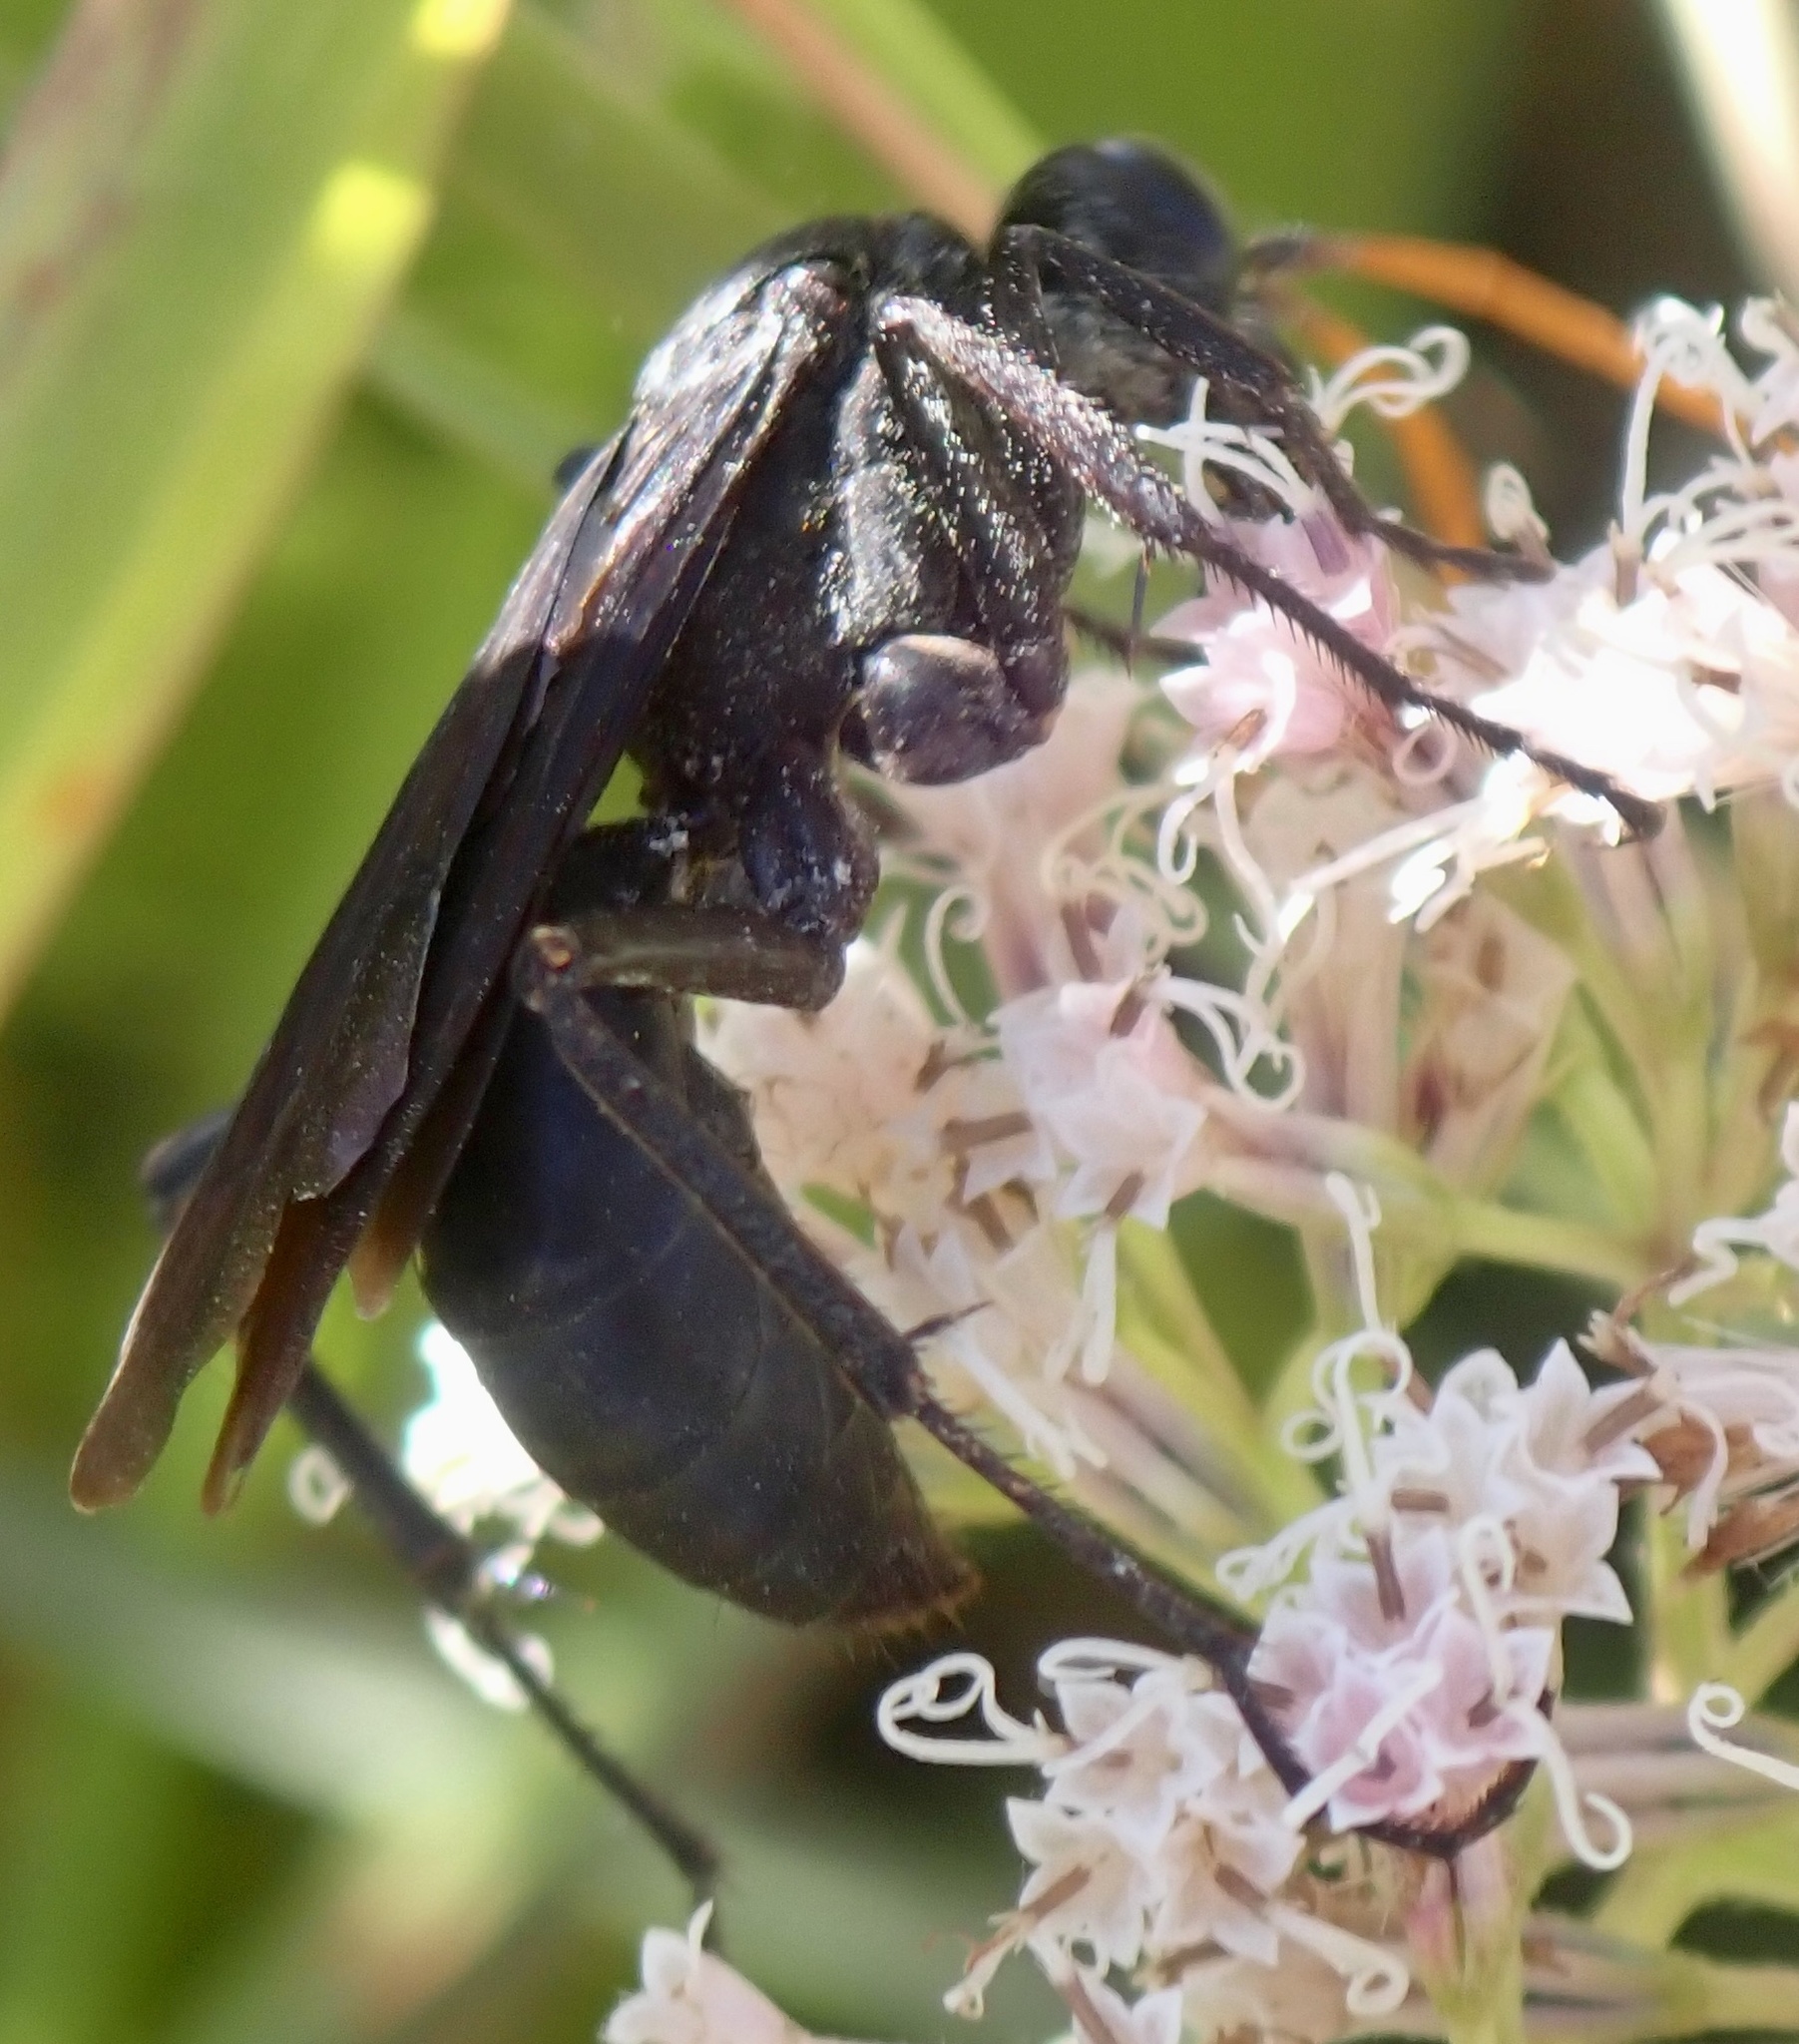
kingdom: Animalia
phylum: Arthropoda
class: Insecta
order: Hymenoptera
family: Pompilidae
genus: Entypus
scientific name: Entypus fulvicornis
